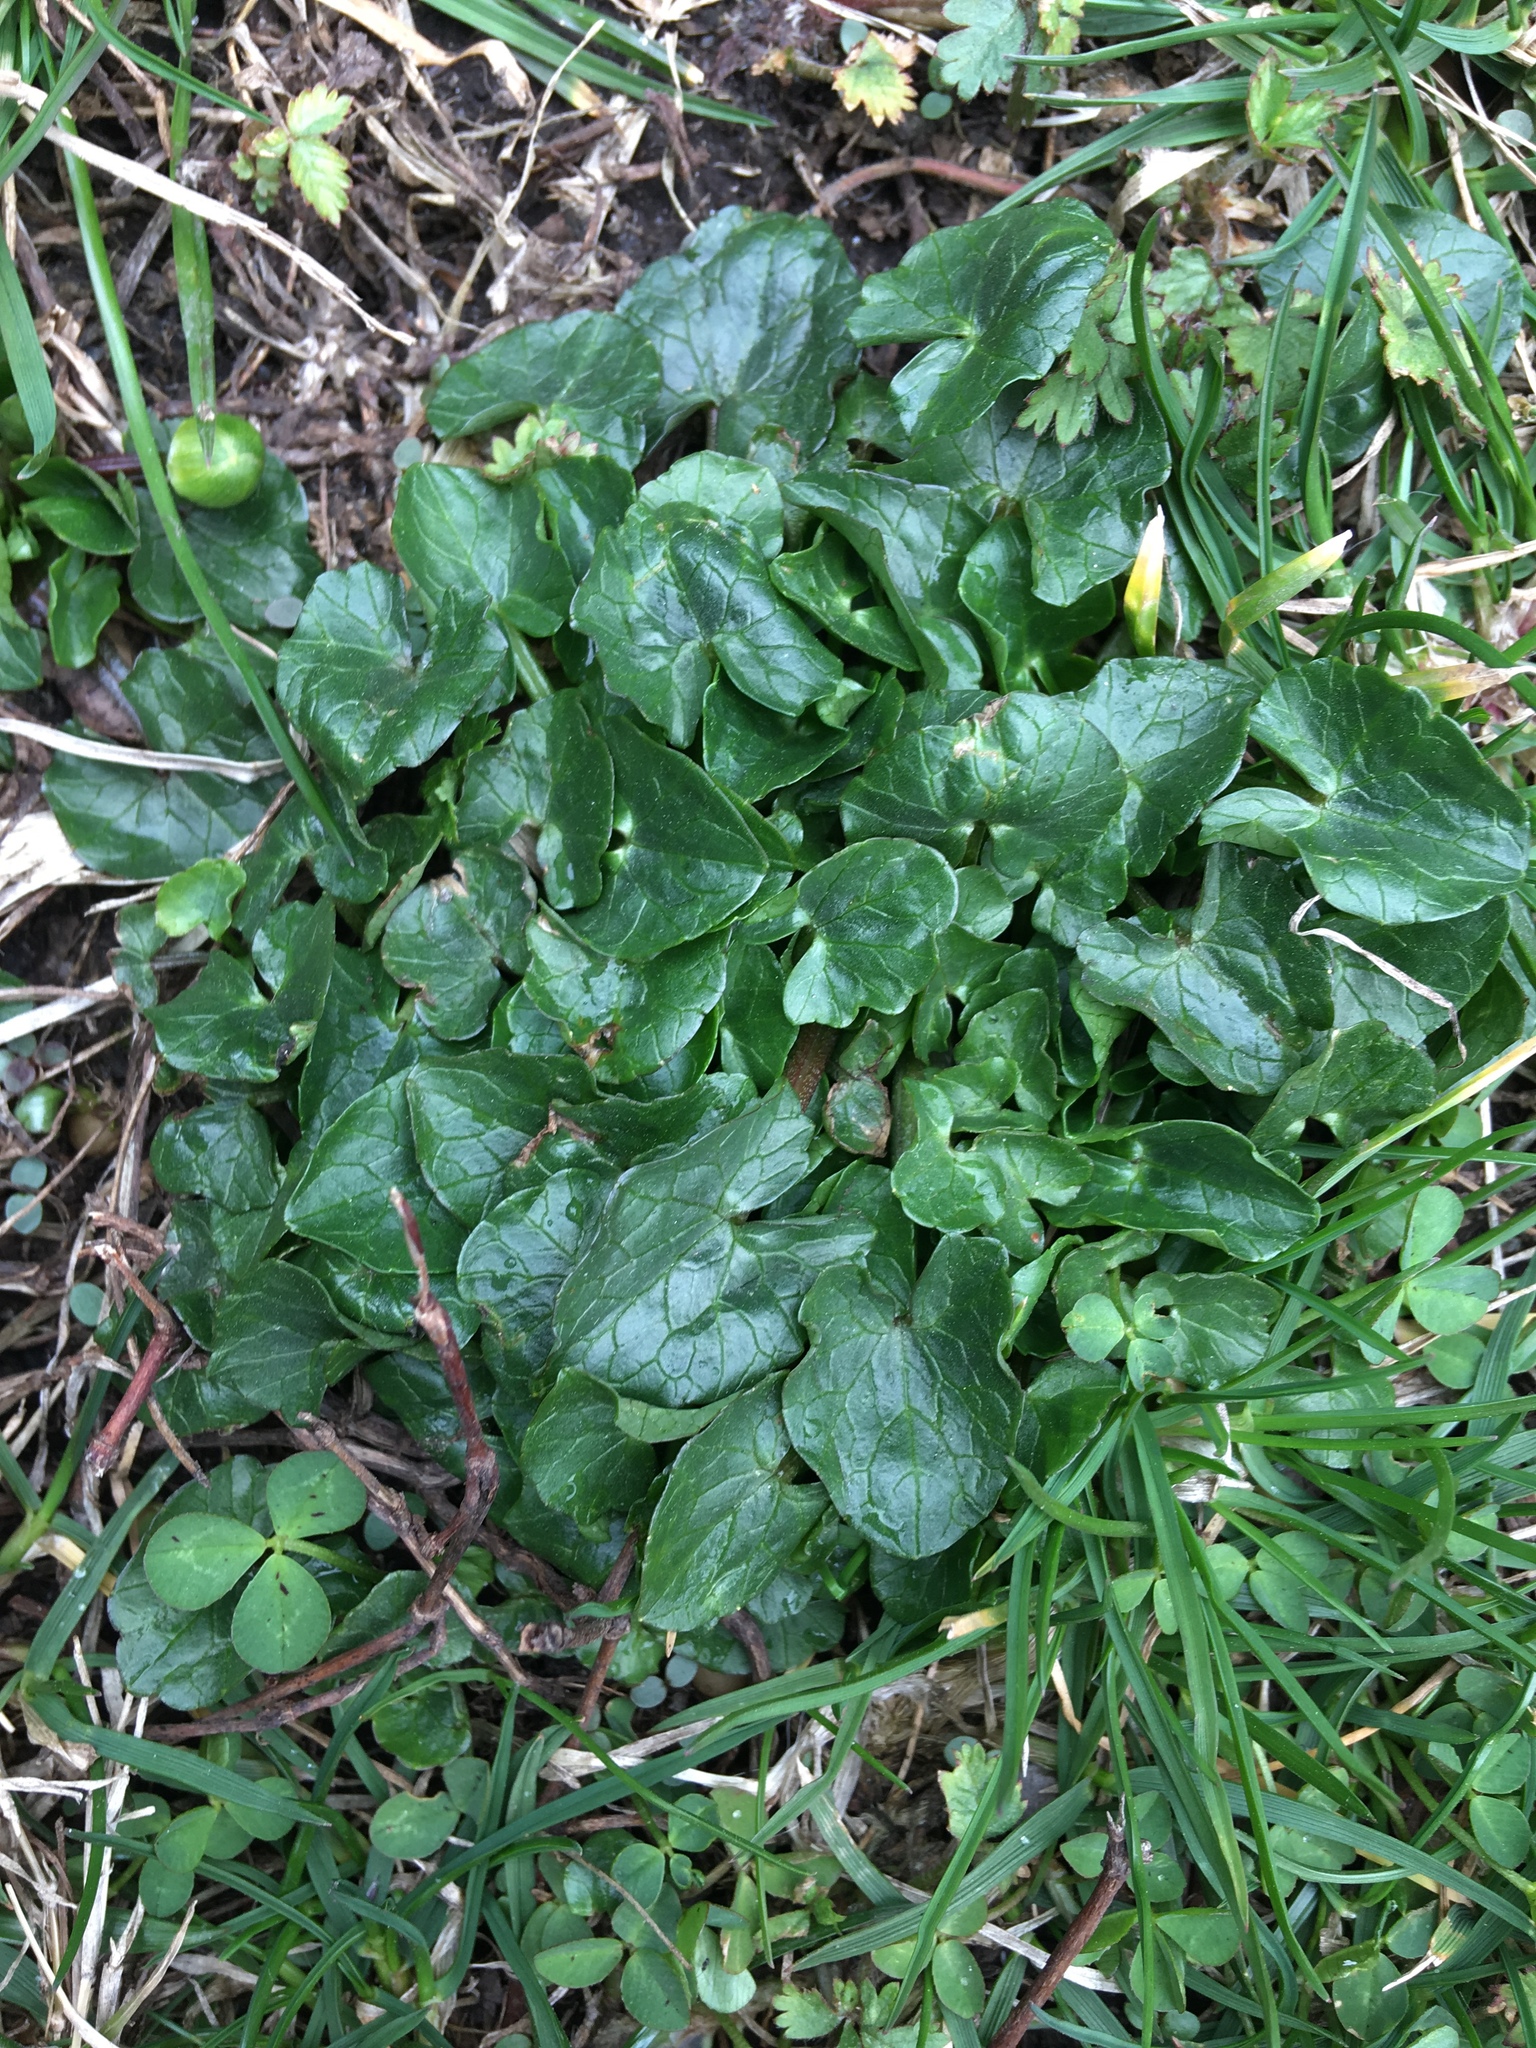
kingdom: Plantae
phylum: Tracheophyta
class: Magnoliopsida
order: Ranunculales
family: Ranunculaceae
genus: Ficaria
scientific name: Ficaria verna
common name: Lesser celandine
